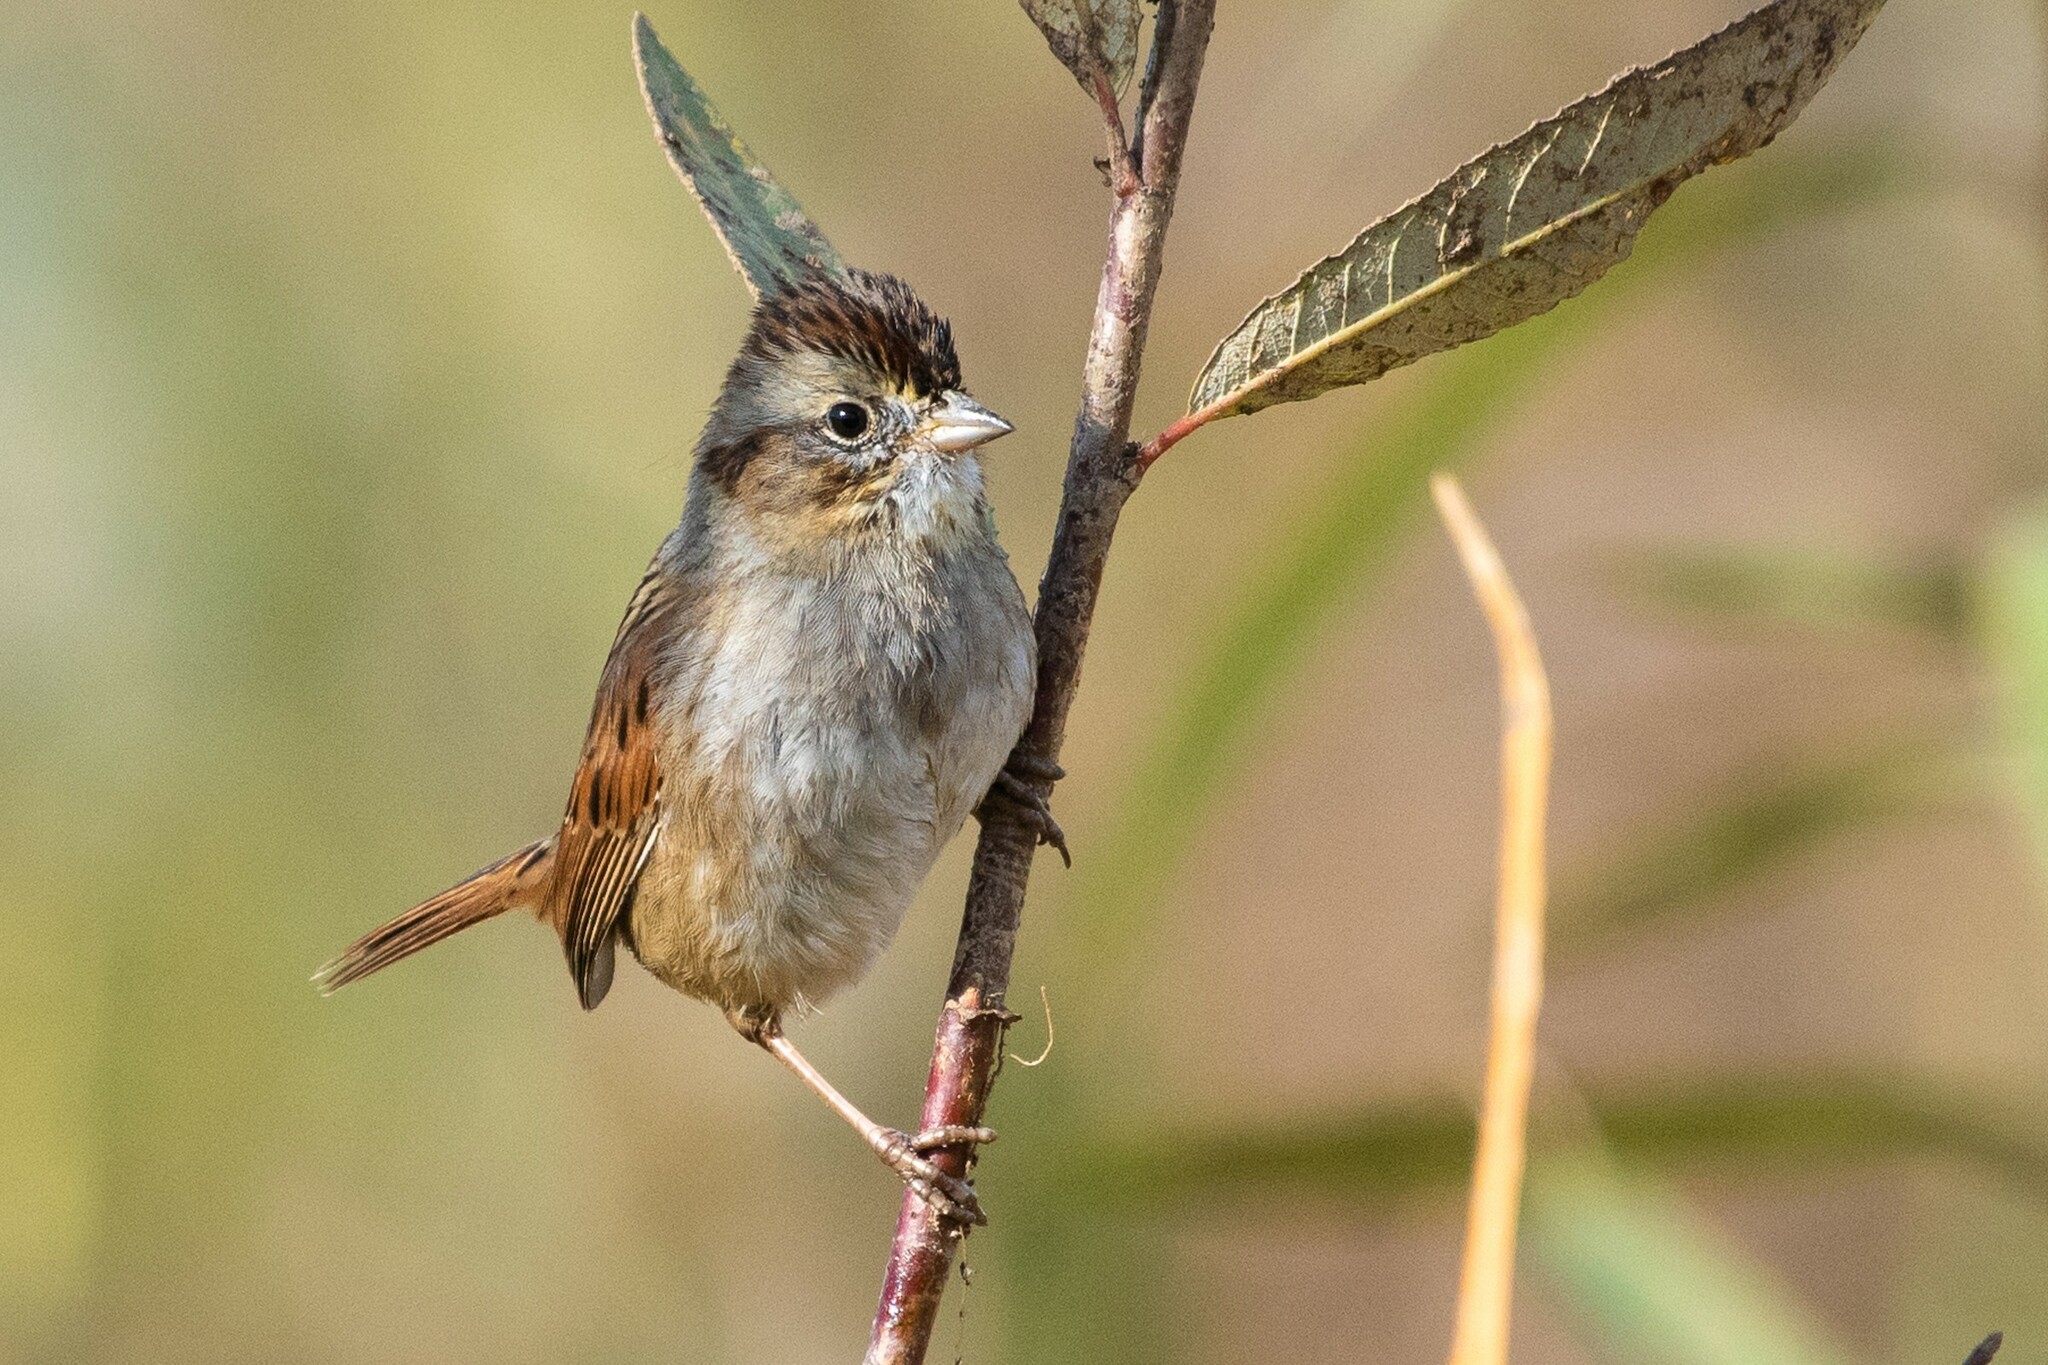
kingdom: Animalia
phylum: Chordata
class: Aves
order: Passeriformes
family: Passerellidae
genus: Melospiza
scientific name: Melospiza georgiana
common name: Swamp sparrow
